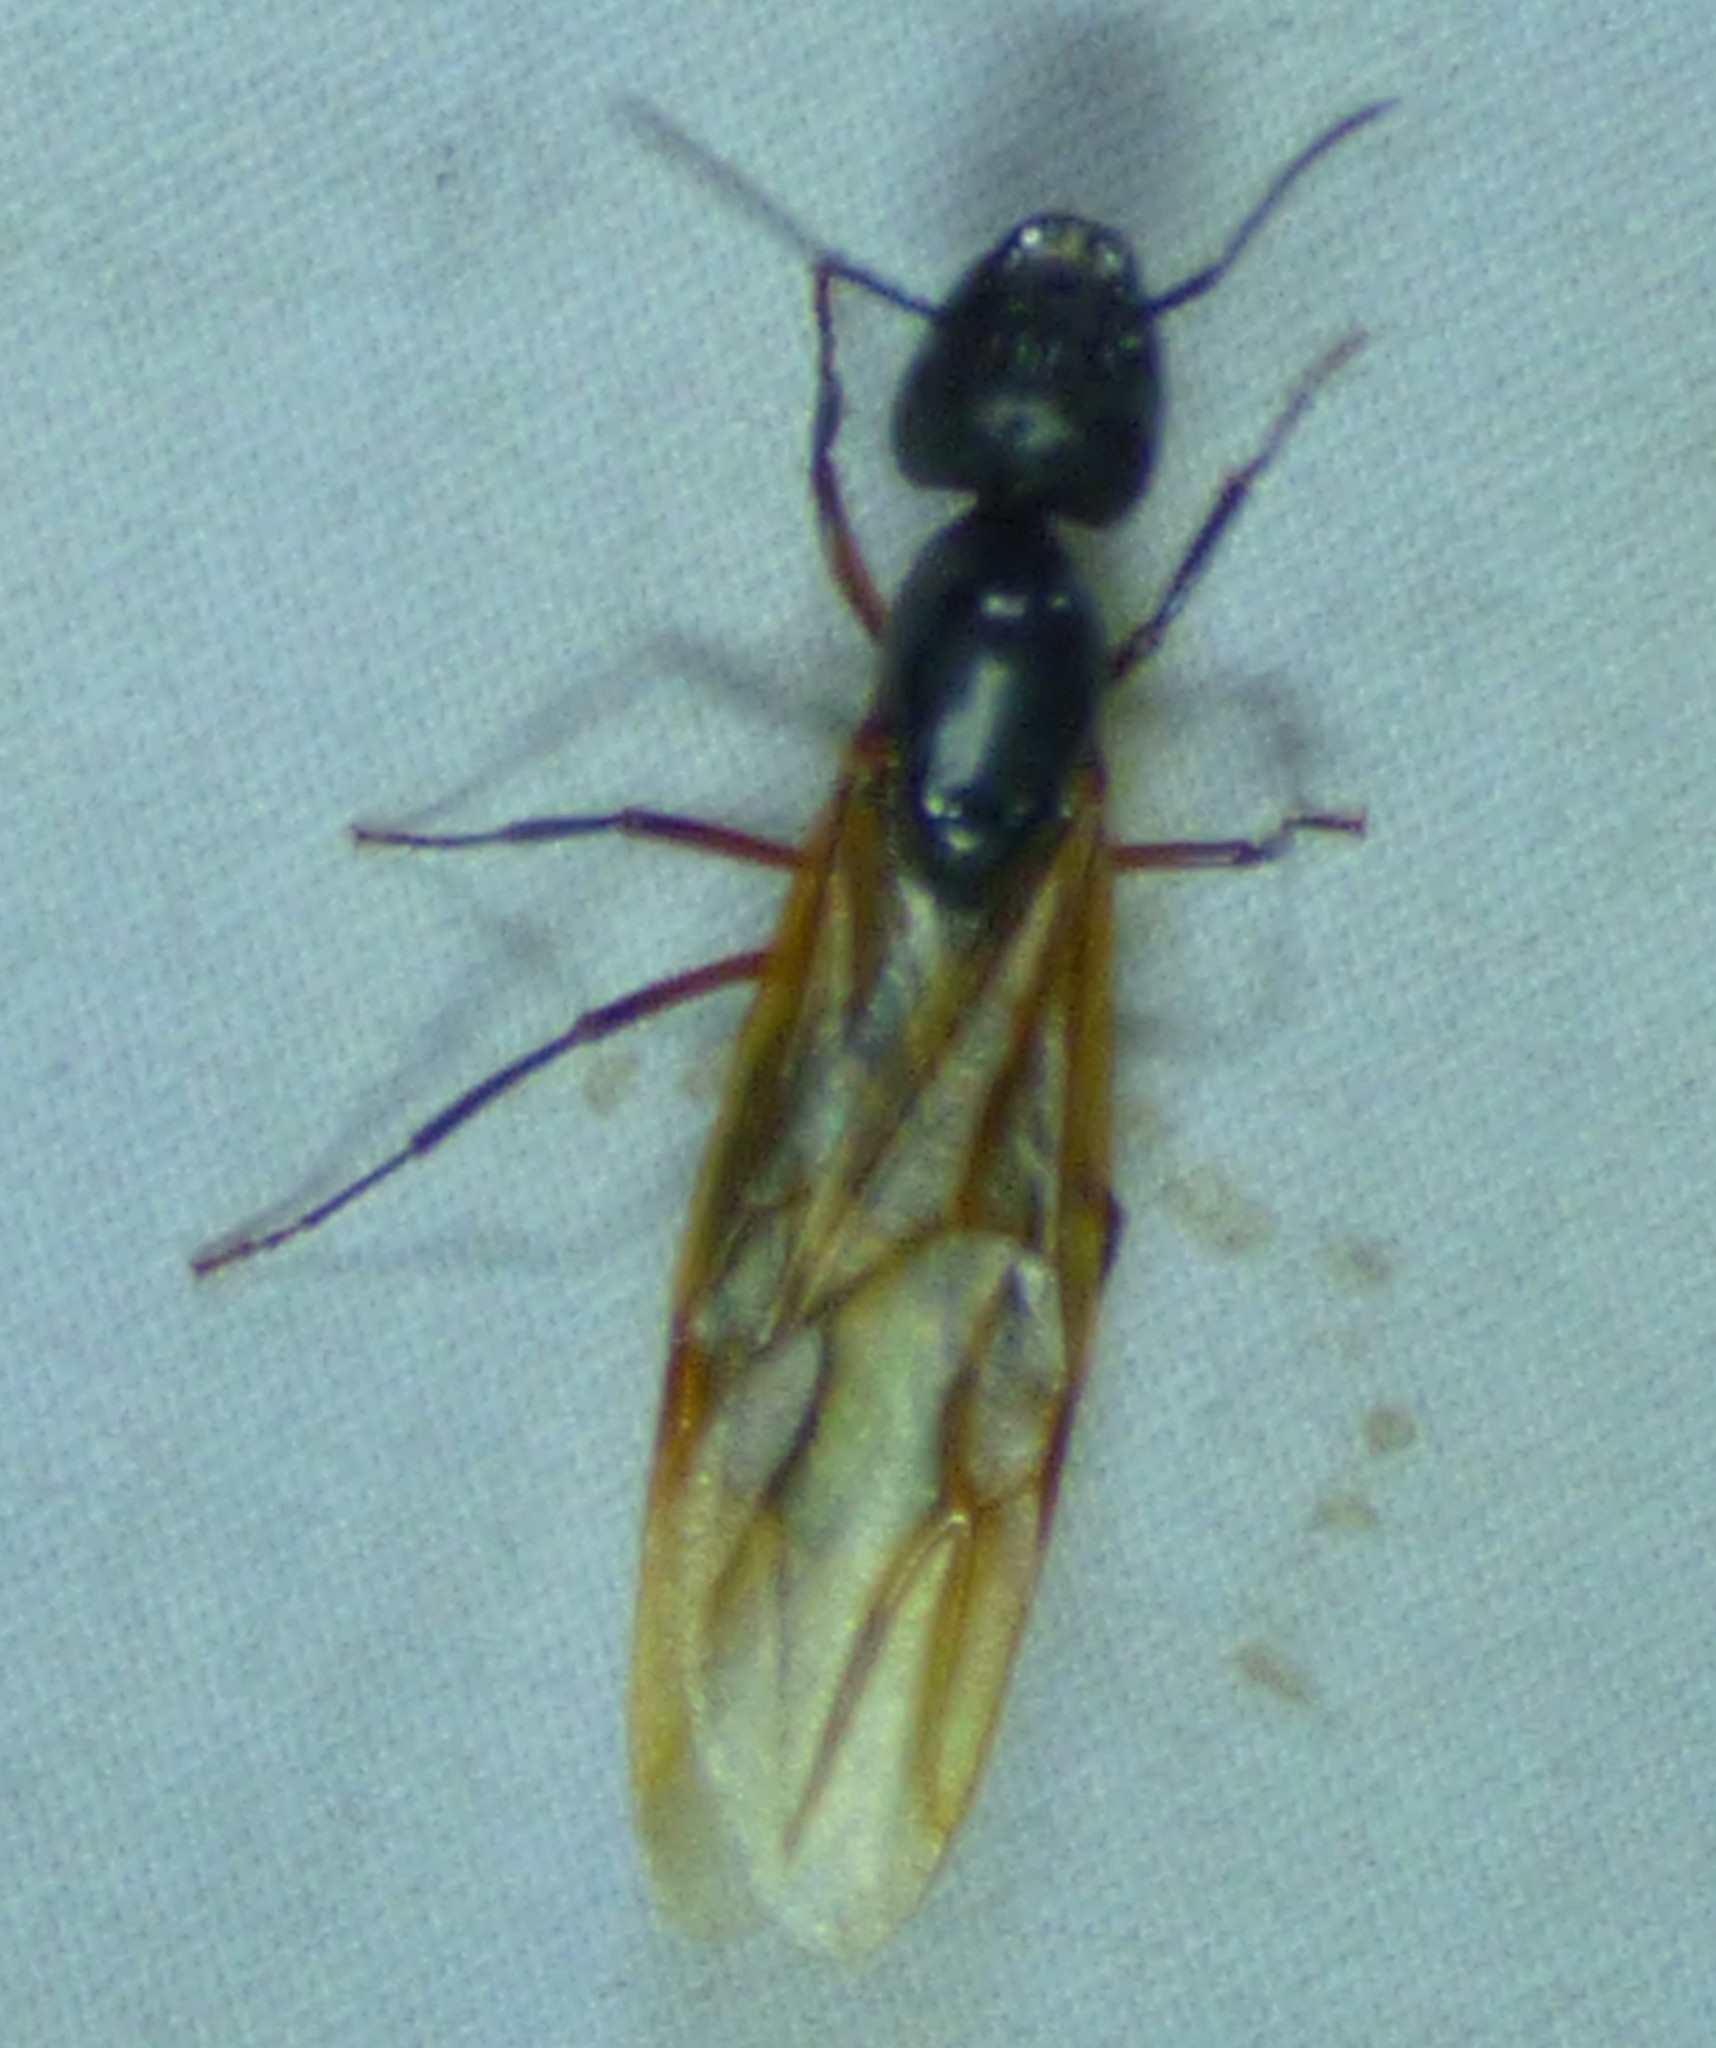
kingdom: Animalia
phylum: Arthropoda
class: Insecta
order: Hymenoptera
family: Formicidae
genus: Camponotus
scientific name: Camponotus pennsylvanicus
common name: Black carpenter ant
